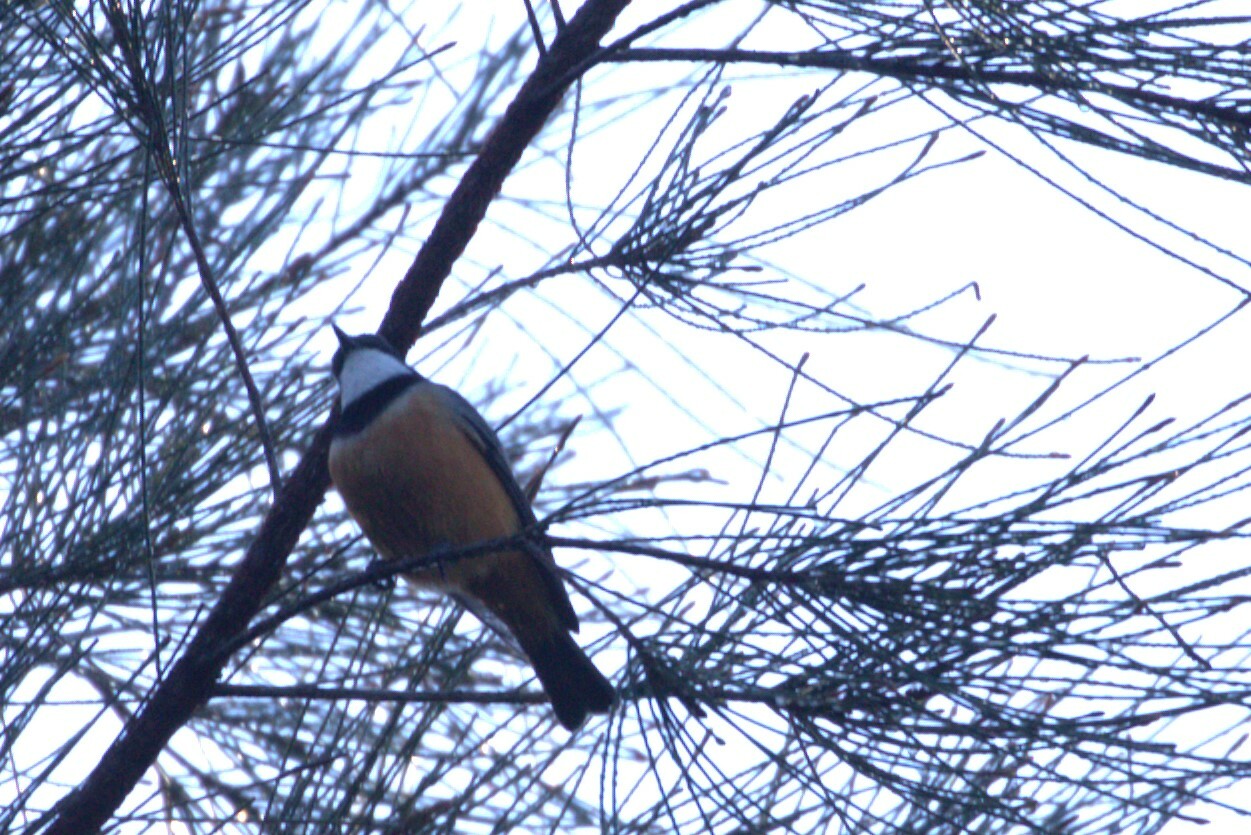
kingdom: Animalia
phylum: Chordata
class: Aves
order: Passeriformes
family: Pachycephalidae
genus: Pachycephala
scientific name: Pachycephala rufiventris
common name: Rufous whistler
